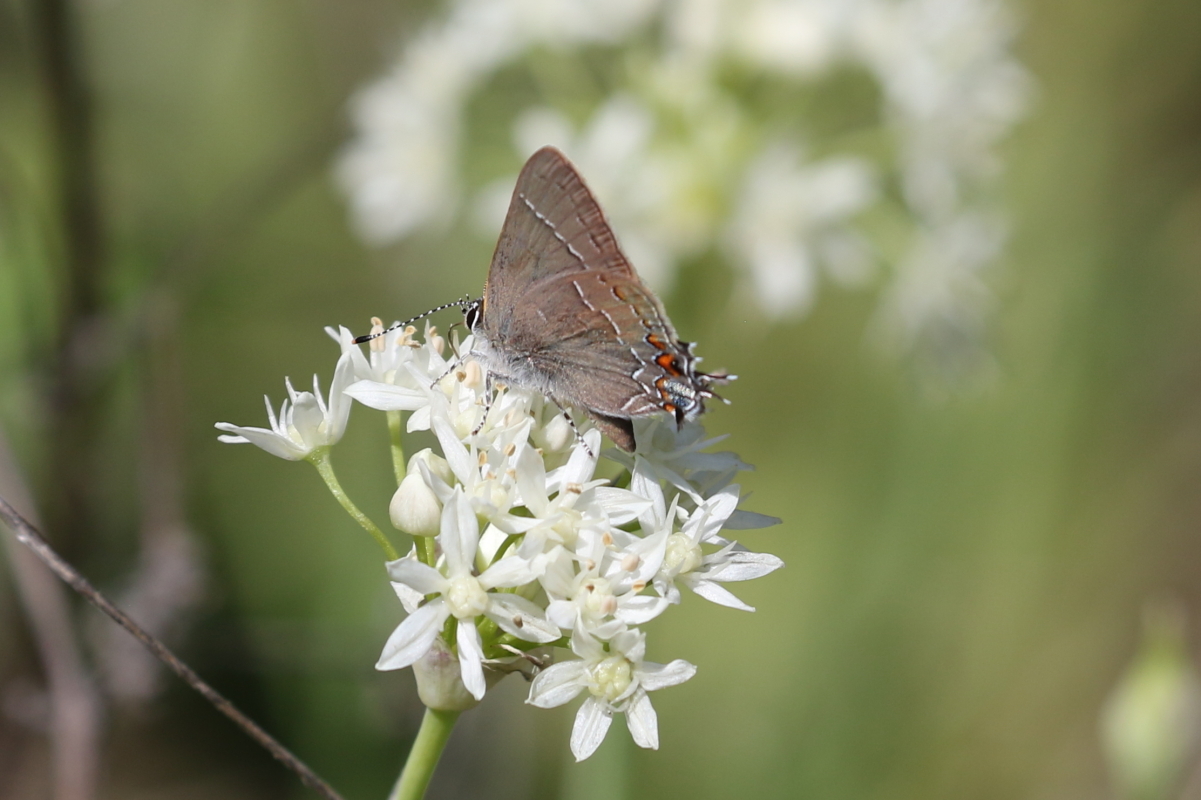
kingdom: Animalia
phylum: Arthropoda
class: Insecta
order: Lepidoptera
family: Lycaenidae
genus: Fixsenia
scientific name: Fixsenia favonius
